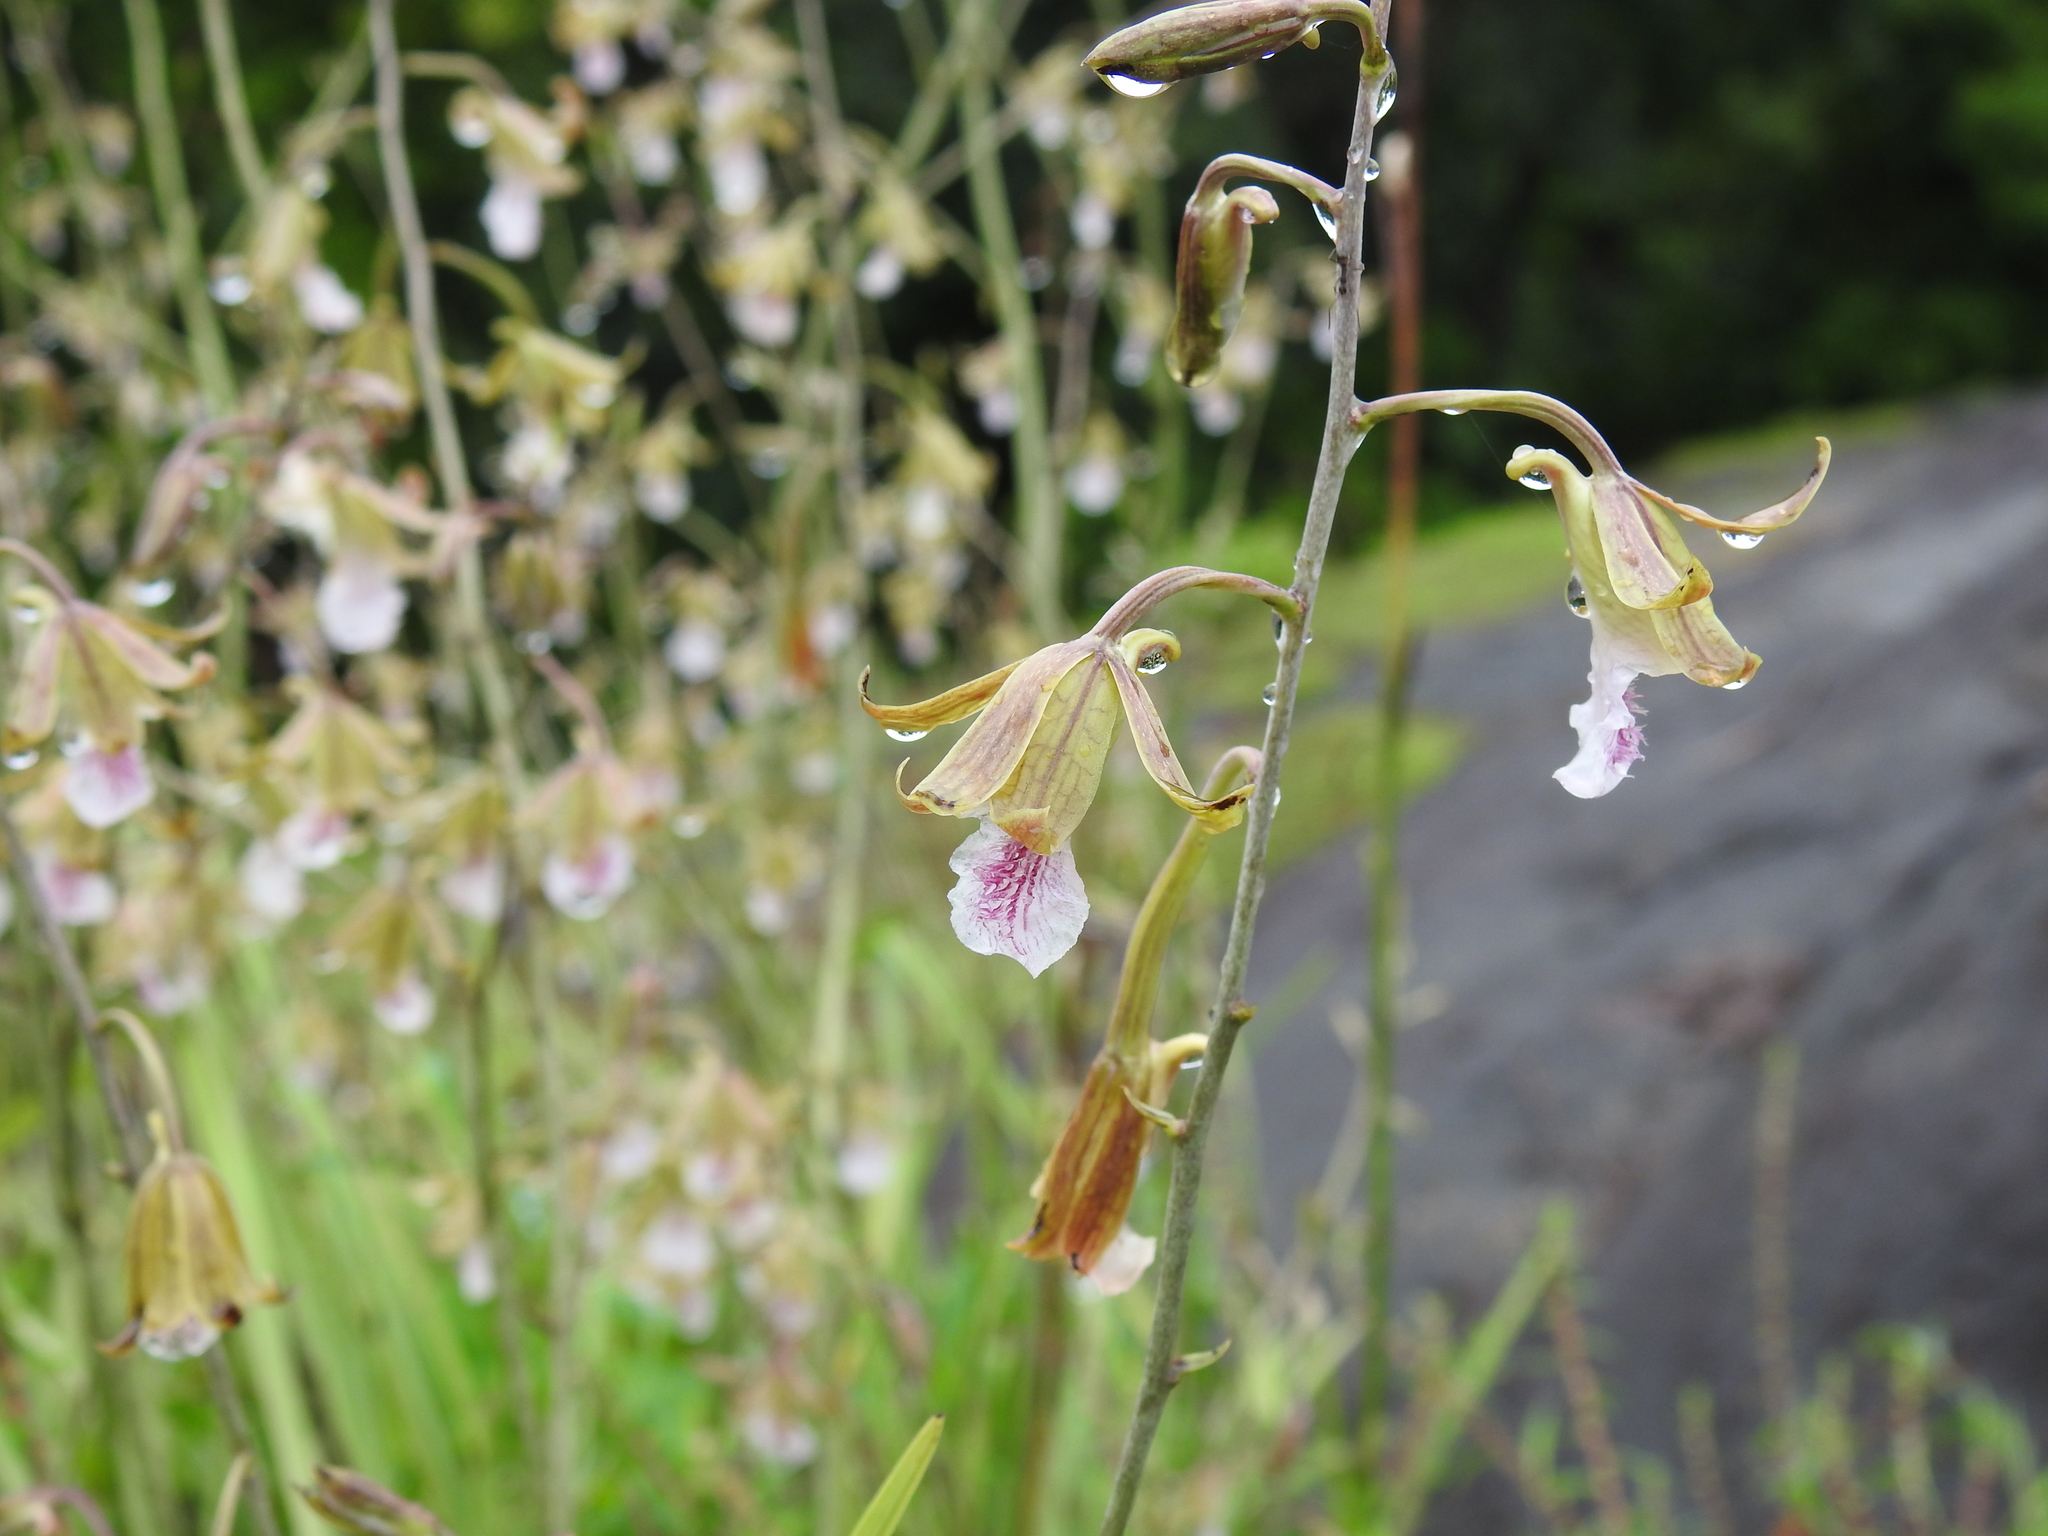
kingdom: Plantae
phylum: Tracheophyta
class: Liliopsida
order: Asparagales
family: Orchidaceae
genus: Eulophia
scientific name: Eulophia graminea
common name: Orchid
